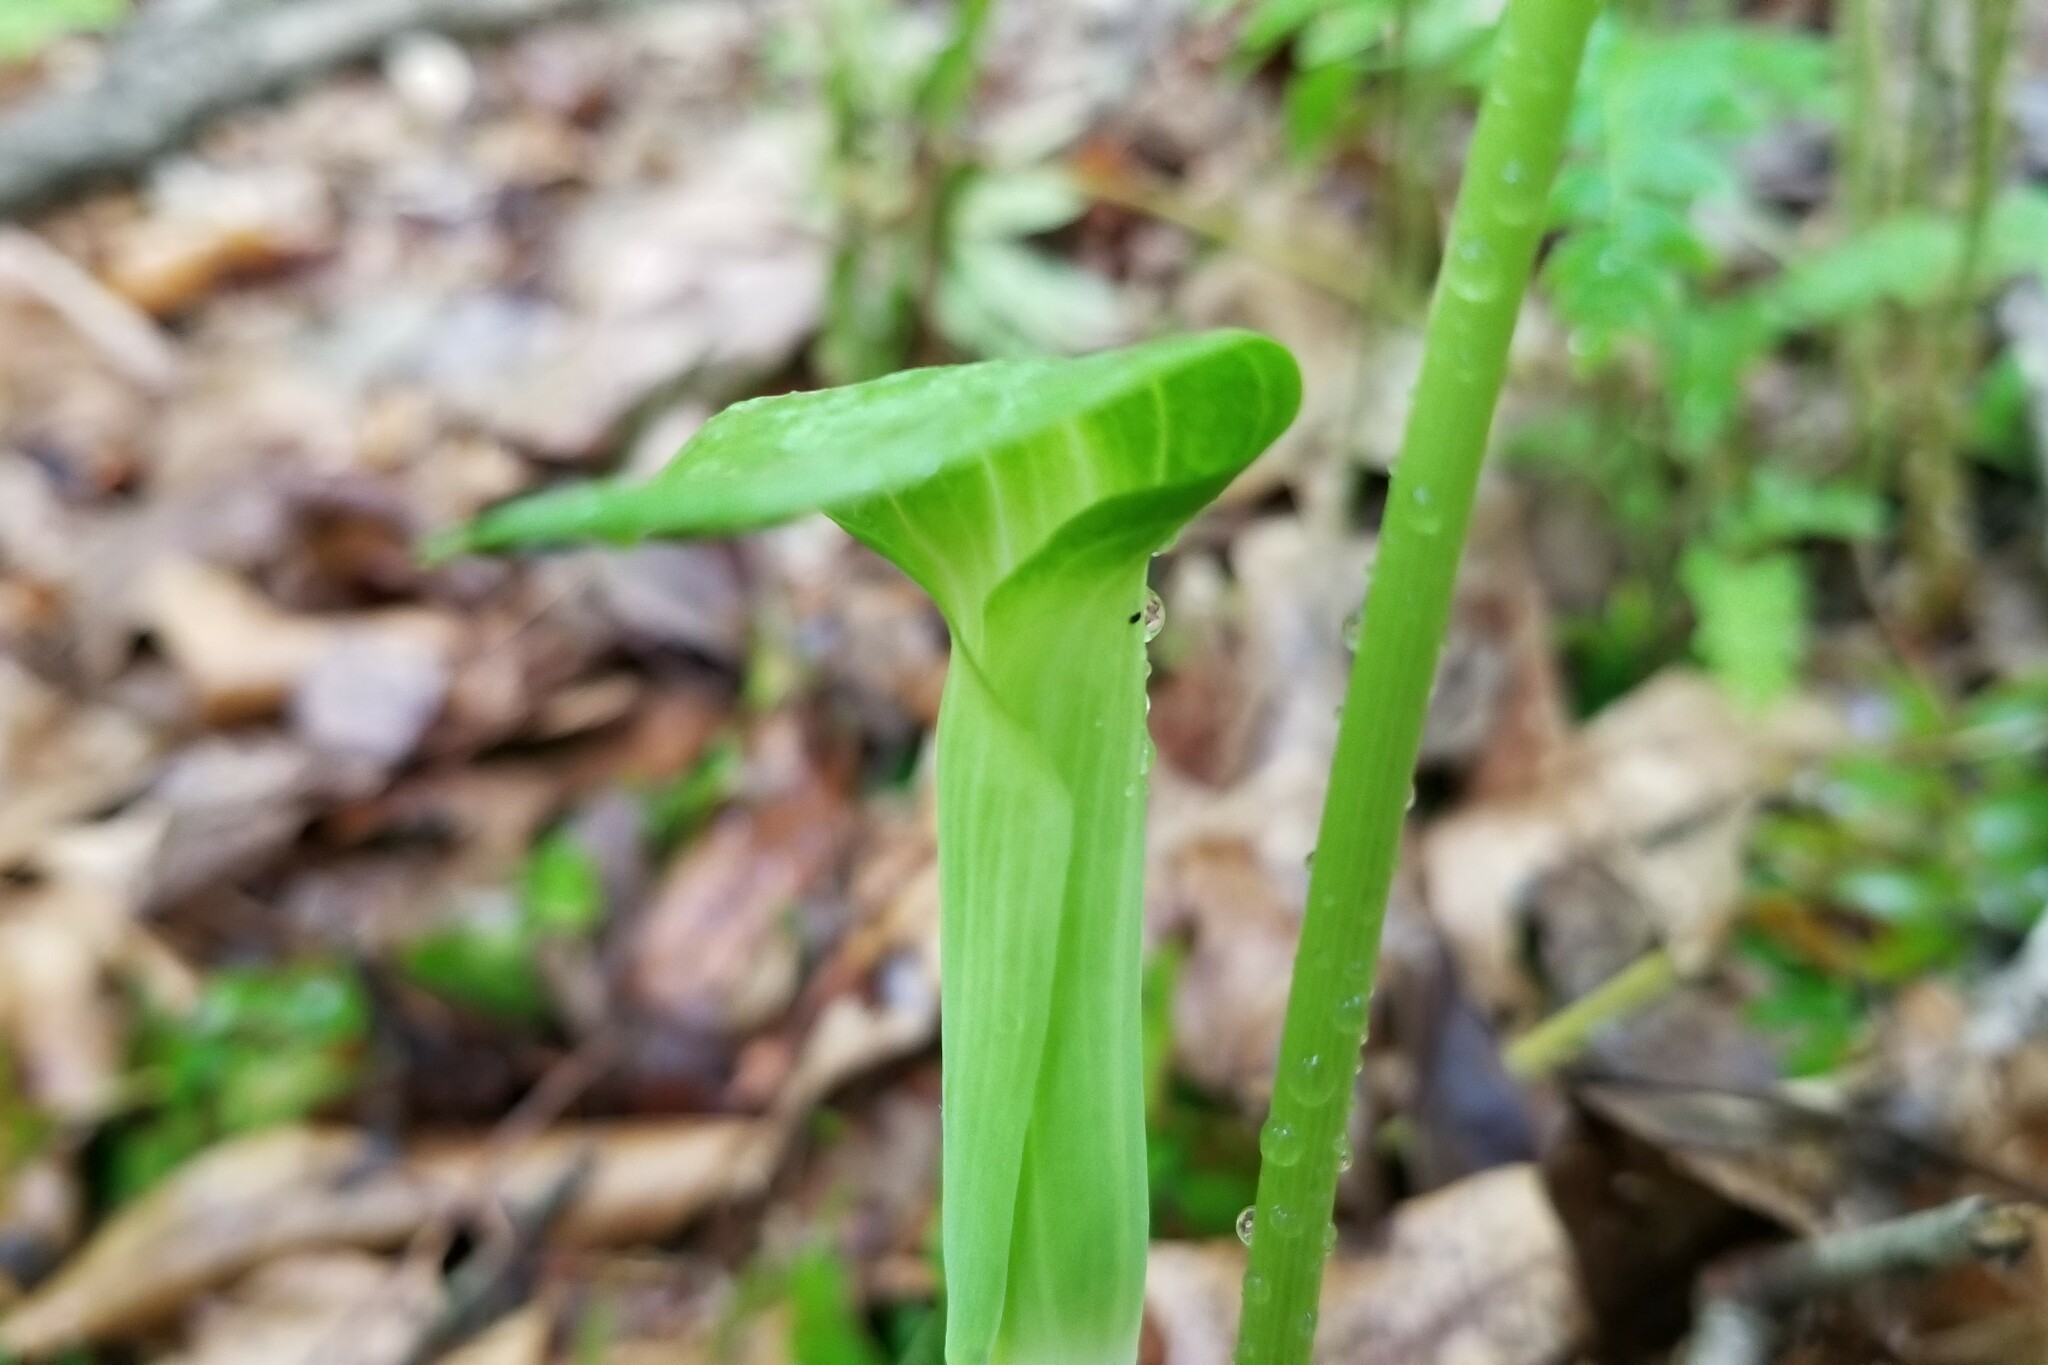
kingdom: Plantae
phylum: Tracheophyta
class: Liliopsida
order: Alismatales
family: Araceae
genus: Arisaema
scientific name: Arisaema pusillum
